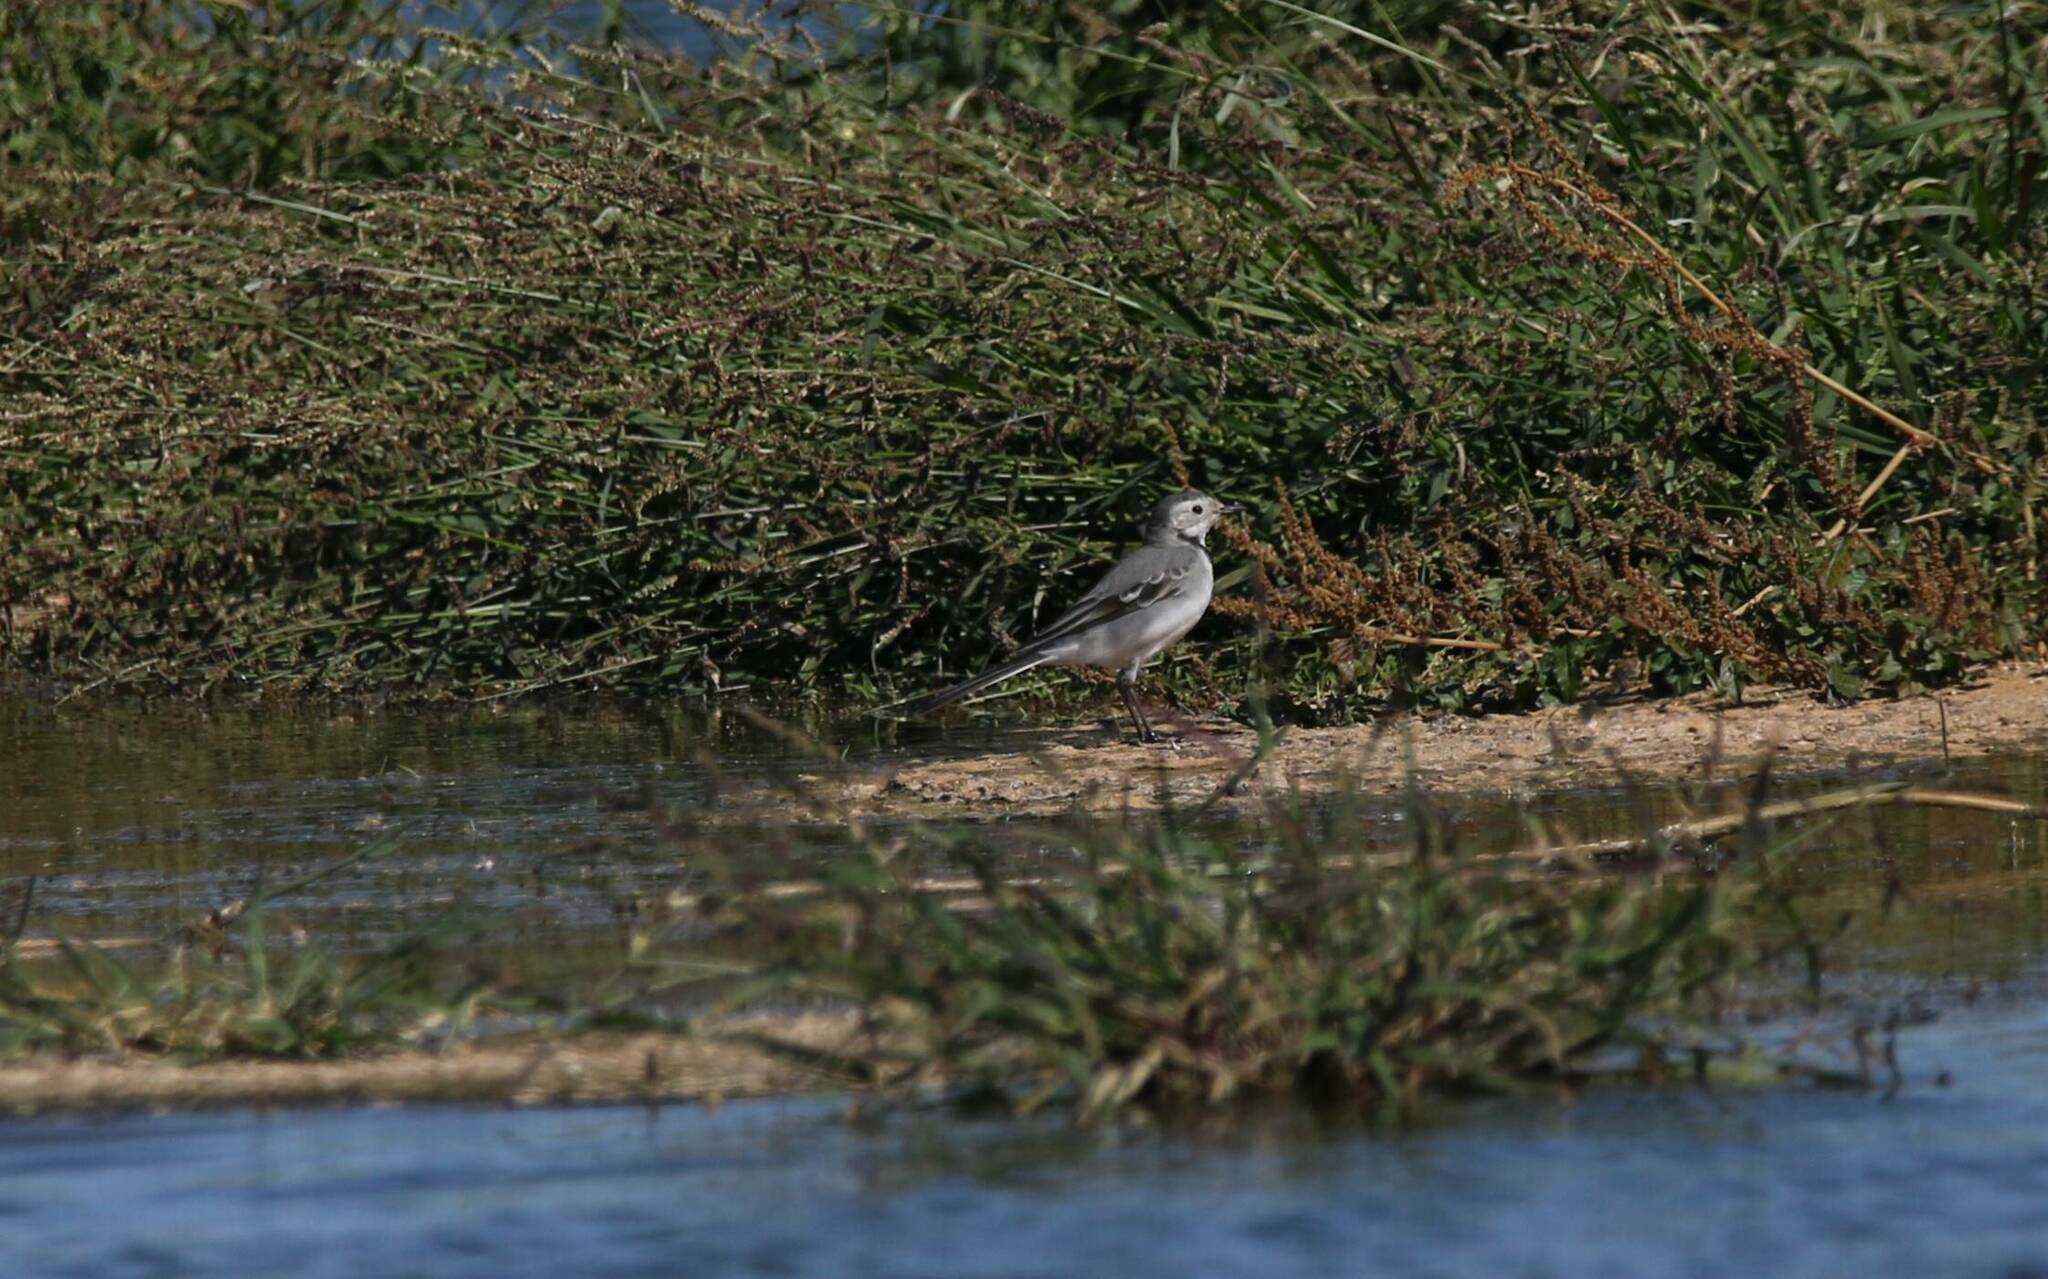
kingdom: Animalia
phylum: Chordata
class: Aves
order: Passeriformes
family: Motacillidae
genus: Motacilla
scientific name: Motacilla alba
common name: White wagtail
